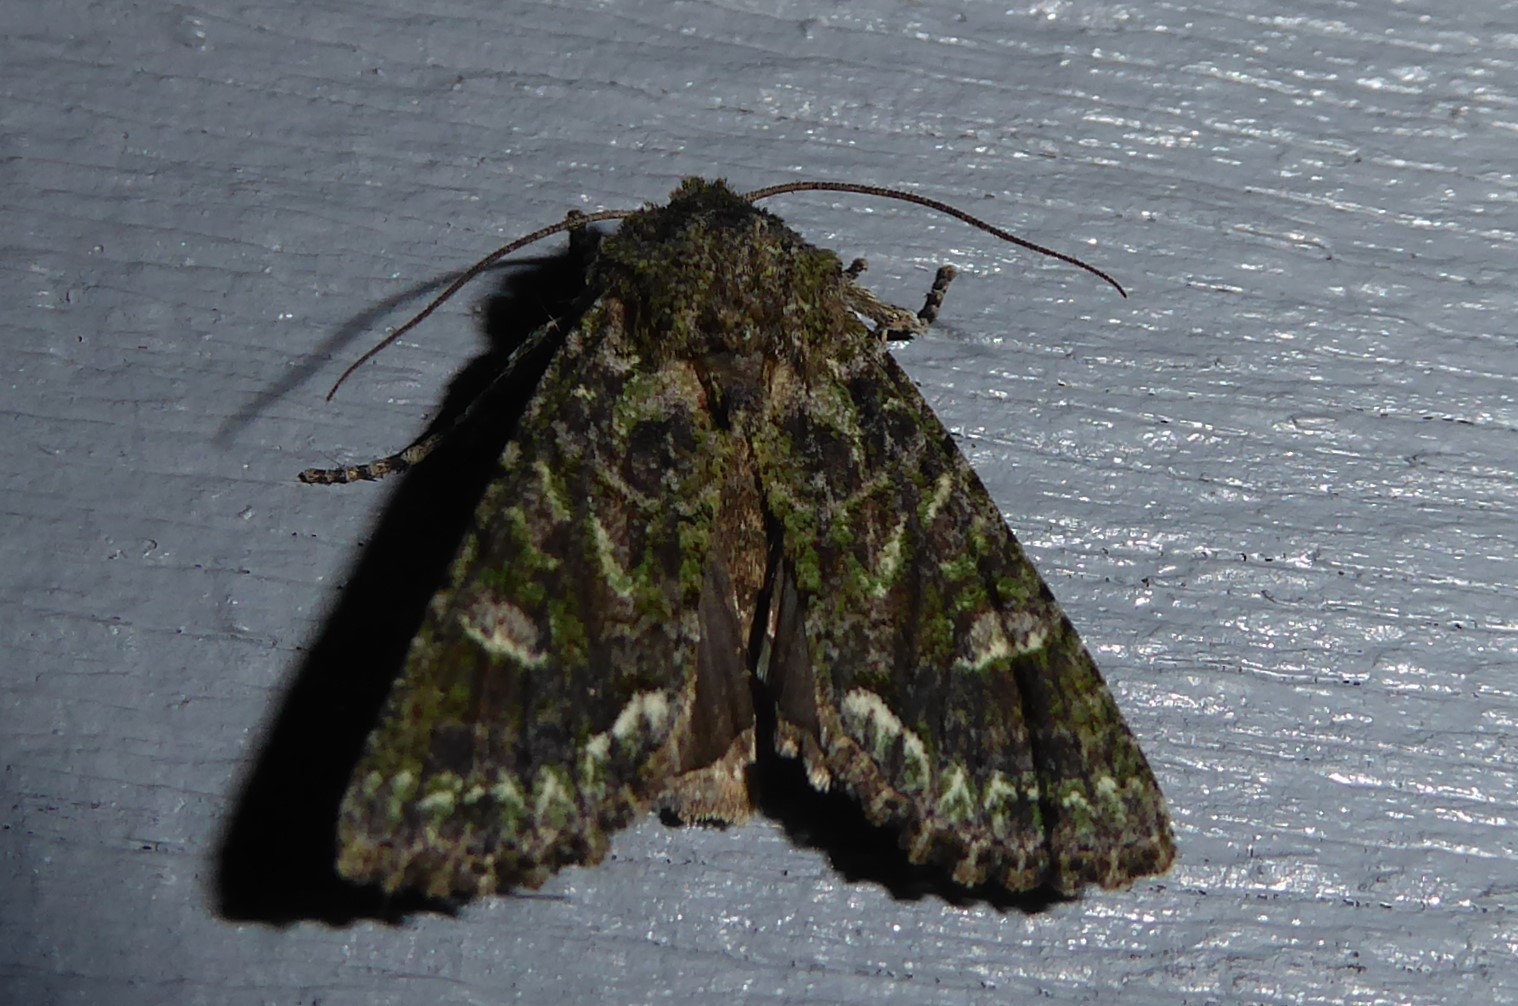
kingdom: Animalia
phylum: Arthropoda
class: Insecta
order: Lepidoptera
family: Noctuidae
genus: Ichneutica
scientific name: Ichneutica
